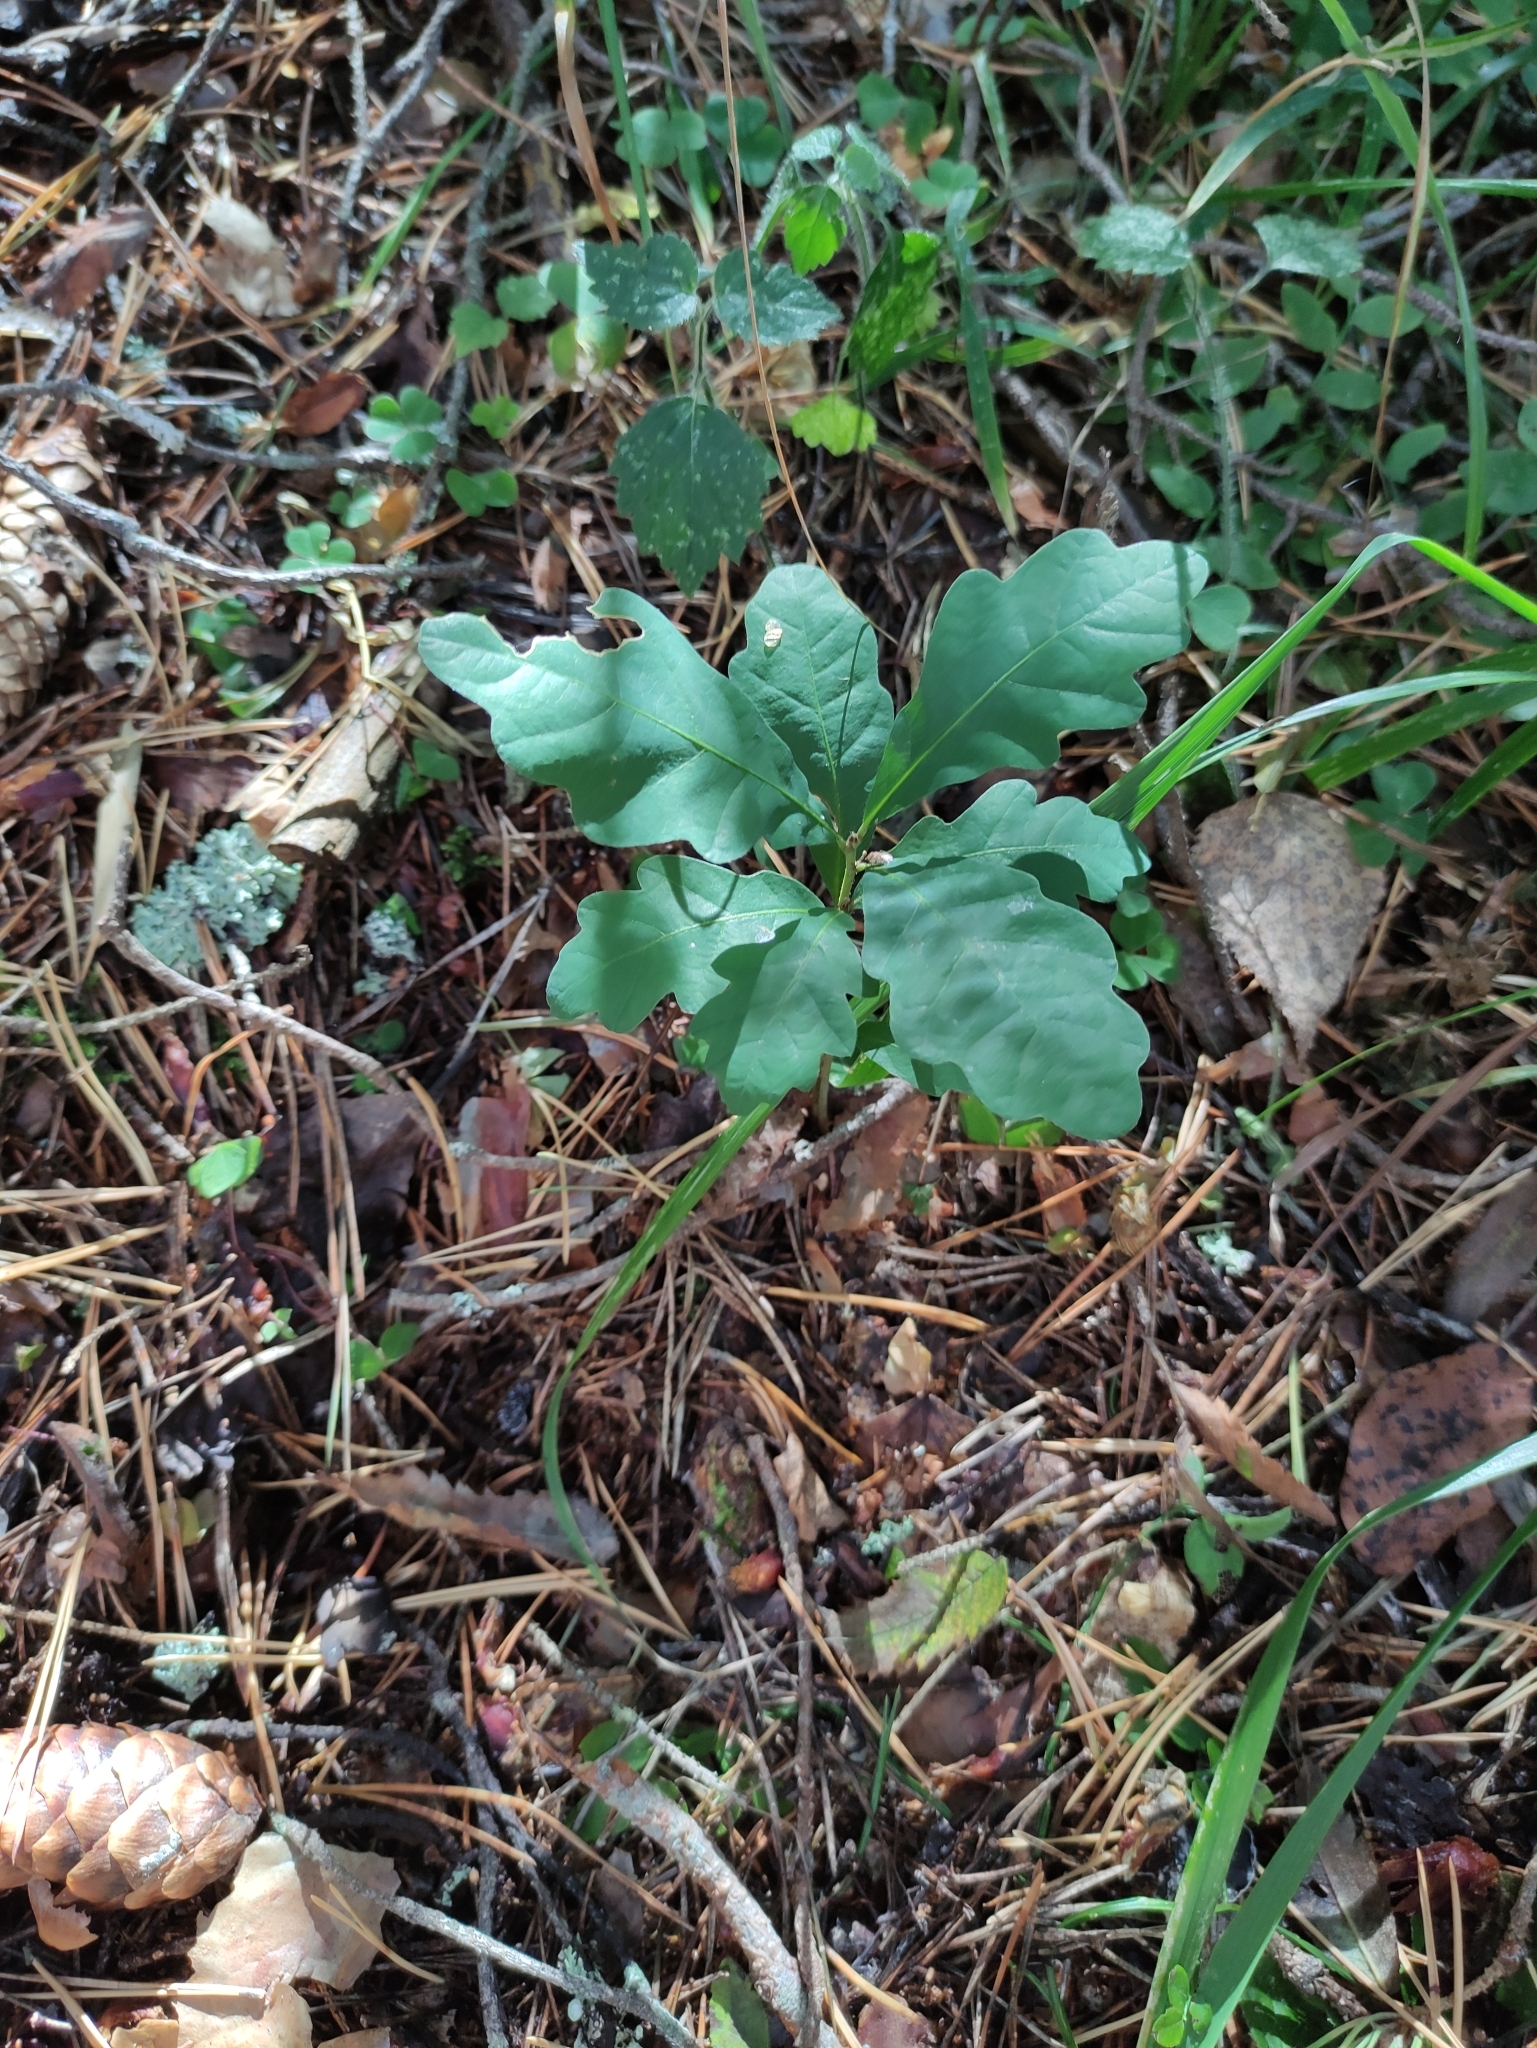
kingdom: Plantae
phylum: Tracheophyta
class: Magnoliopsida
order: Fagales
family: Fagaceae
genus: Quercus
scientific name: Quercus robur
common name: Pedunculate oak
